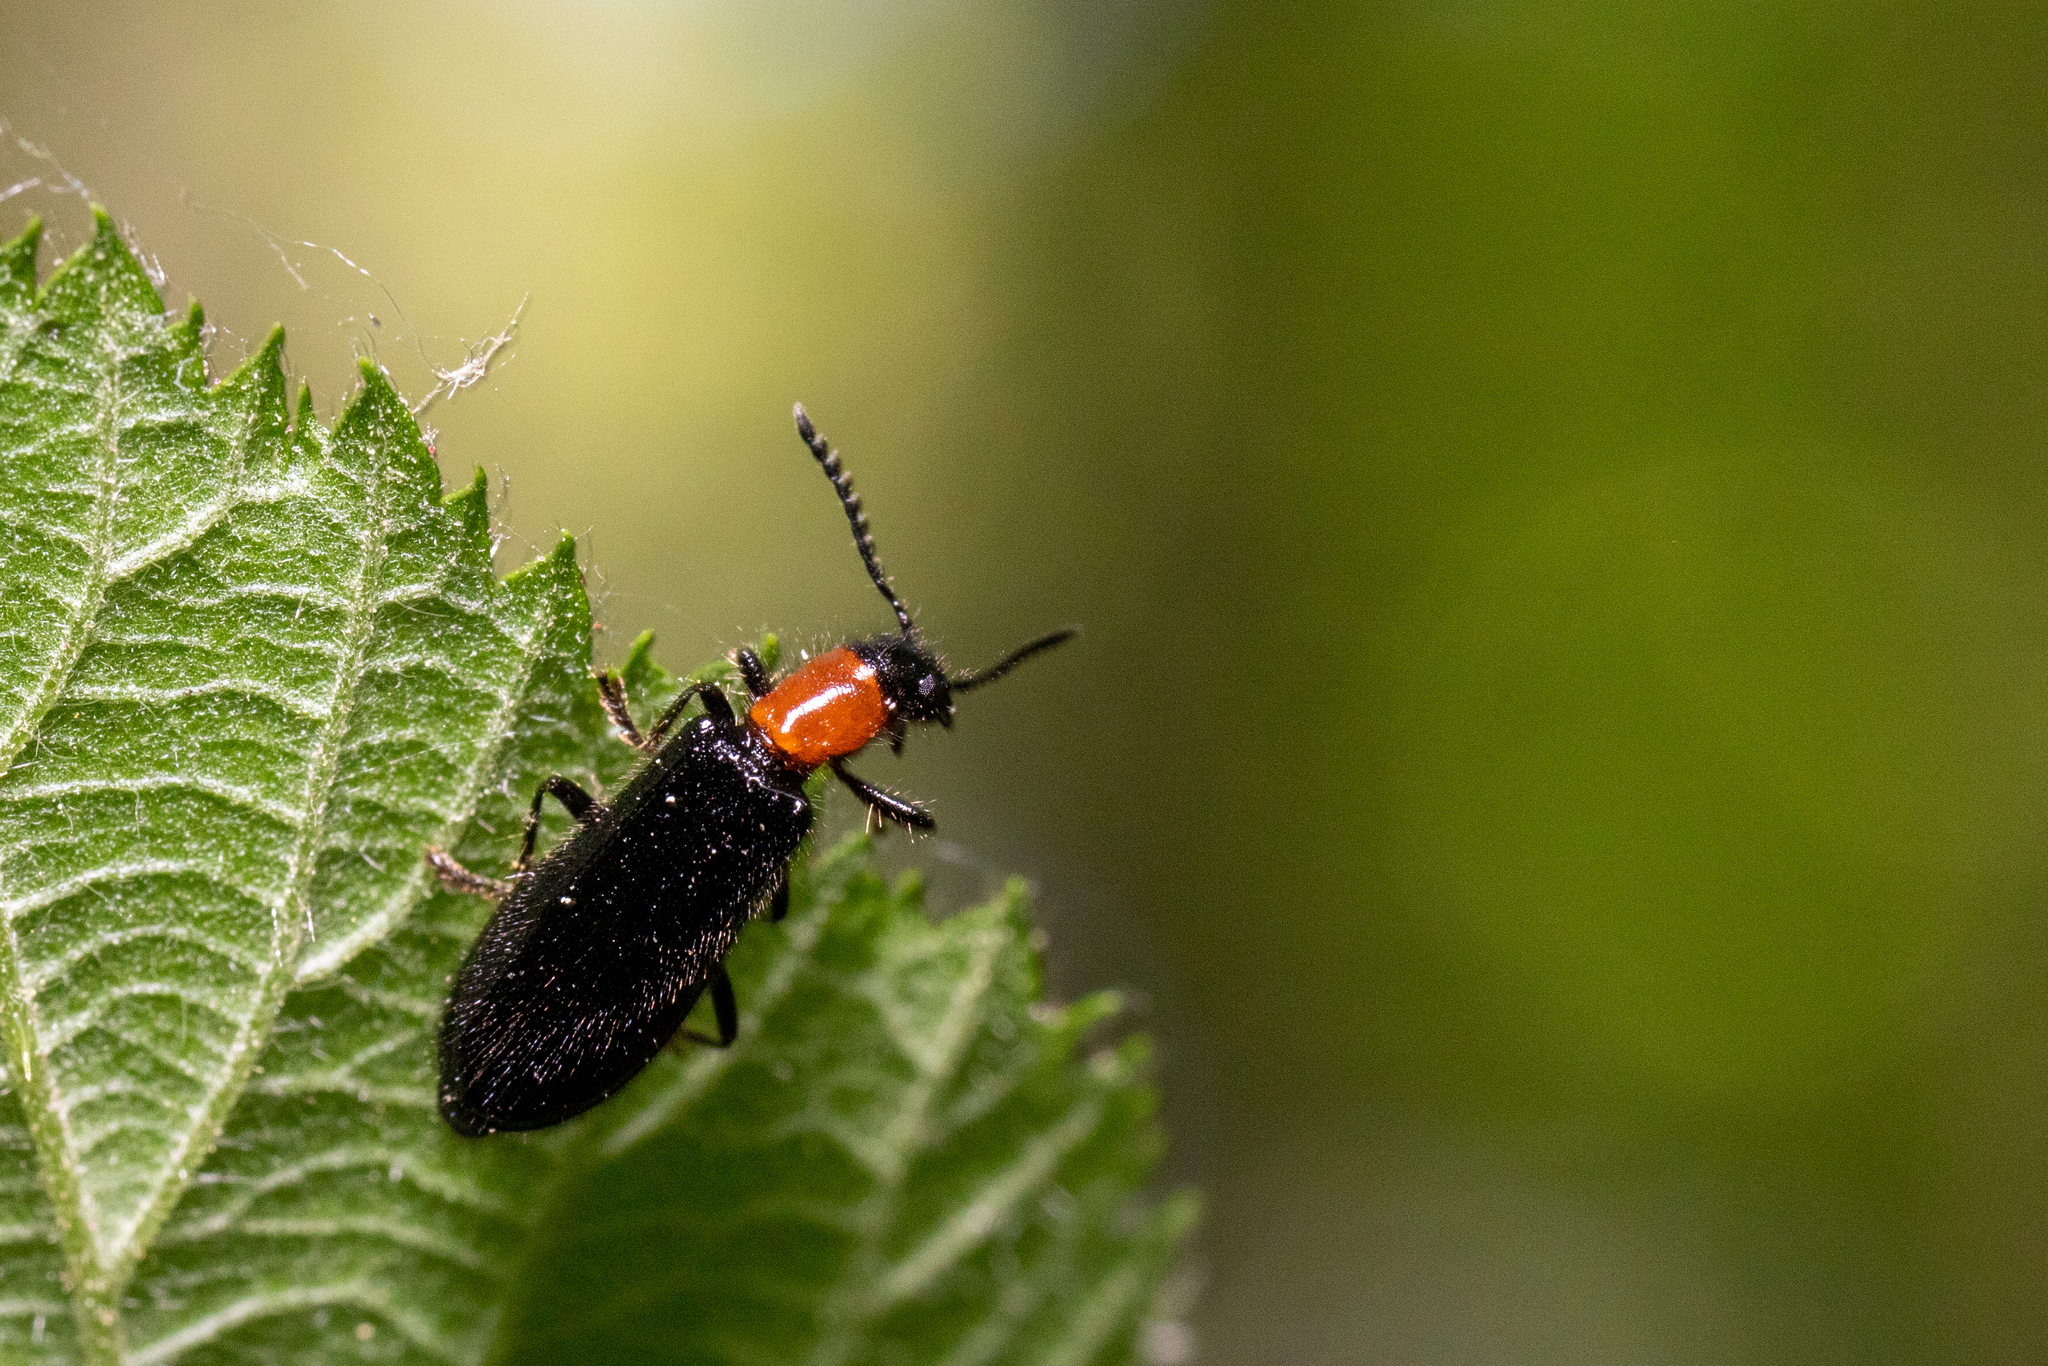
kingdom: Animalia
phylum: Arthropoda
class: Insecta
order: Coleoptera
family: Cleridae
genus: Tillus
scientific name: Tillus elongatus
